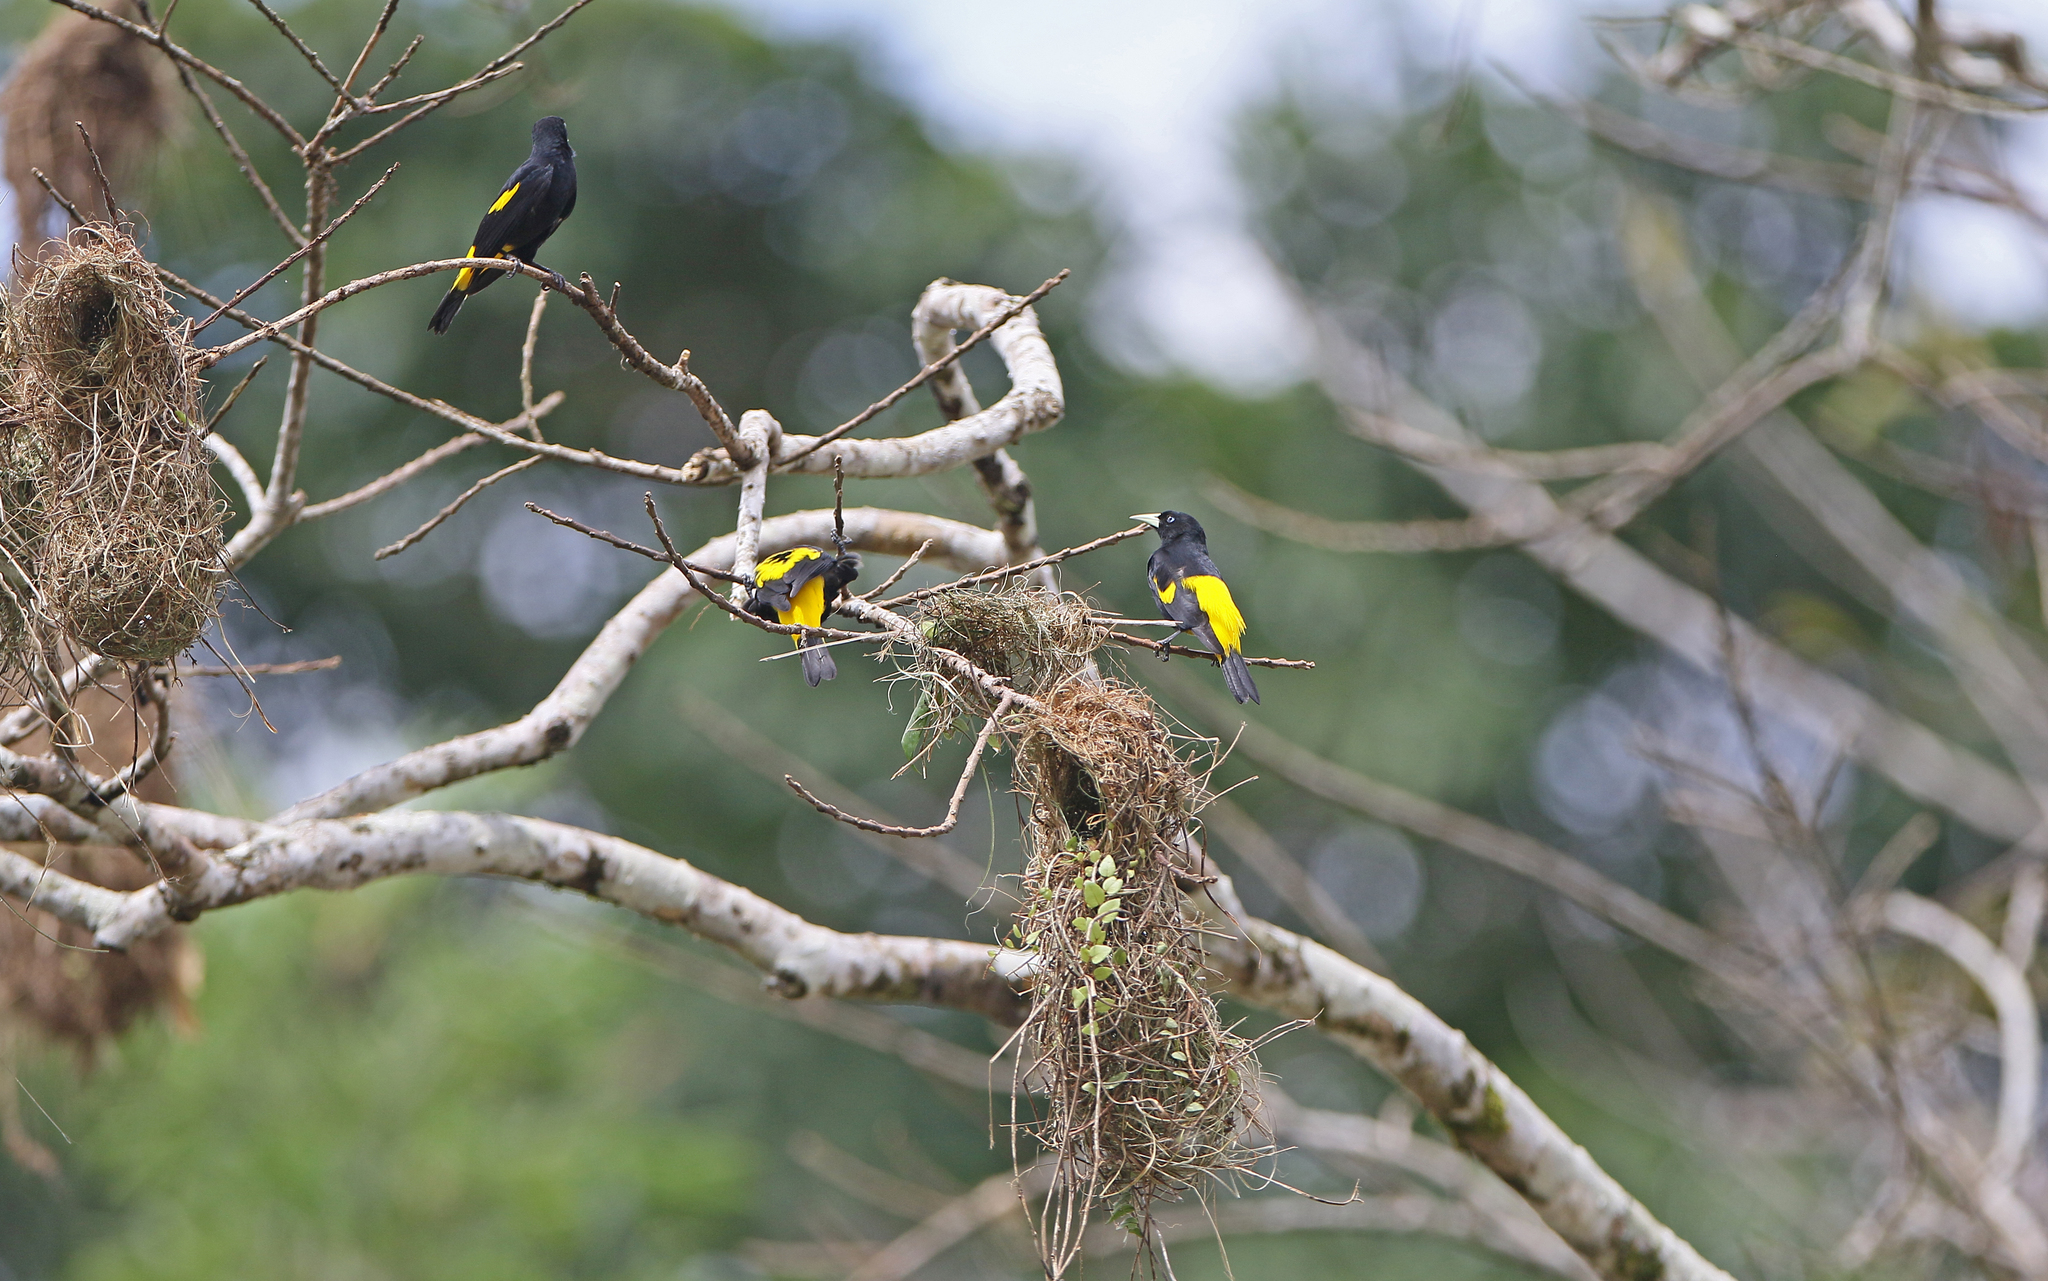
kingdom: Animalia
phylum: Chordata
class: Aves
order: Passeriformes
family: Icteridae
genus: Cacicus
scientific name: Cacicus cela
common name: Yellow-rumped cacique
